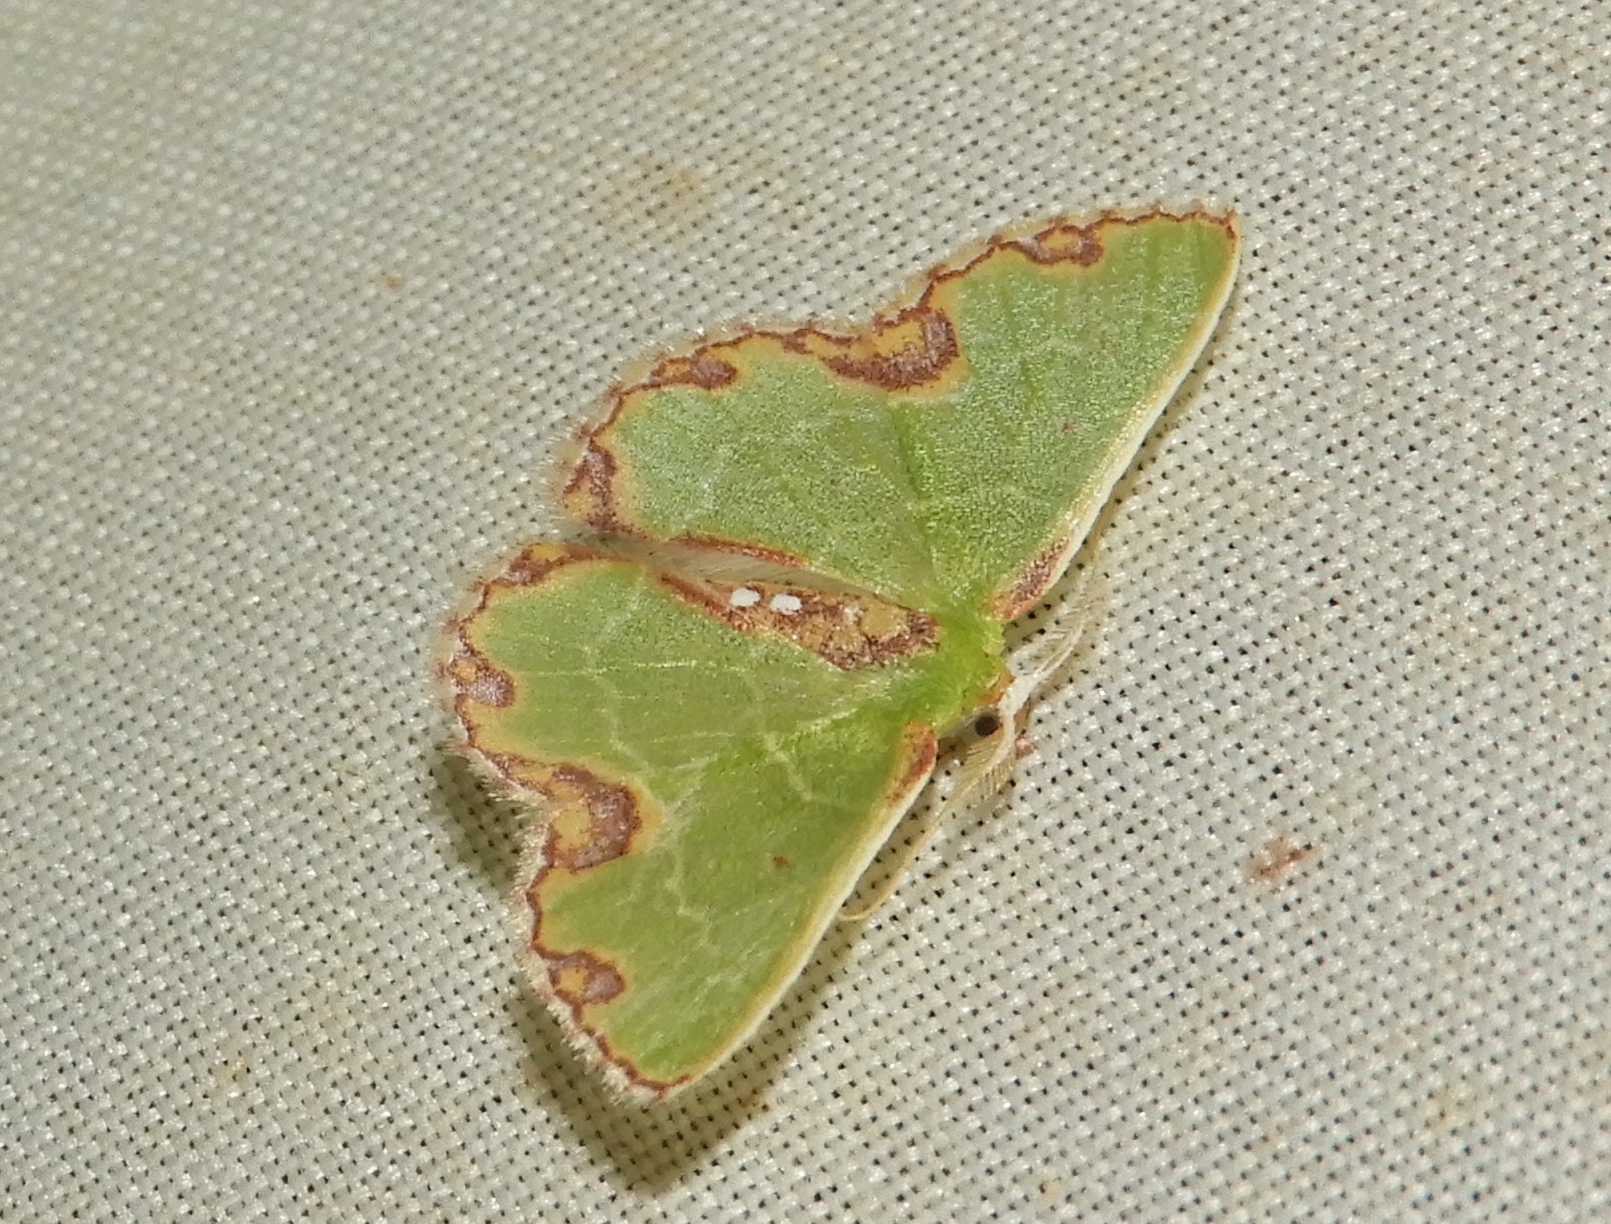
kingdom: Animalia
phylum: Arthropoda
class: Insecta
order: Lepidoptera
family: Geometridae
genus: Synchlora
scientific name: Synchlora gerularia
